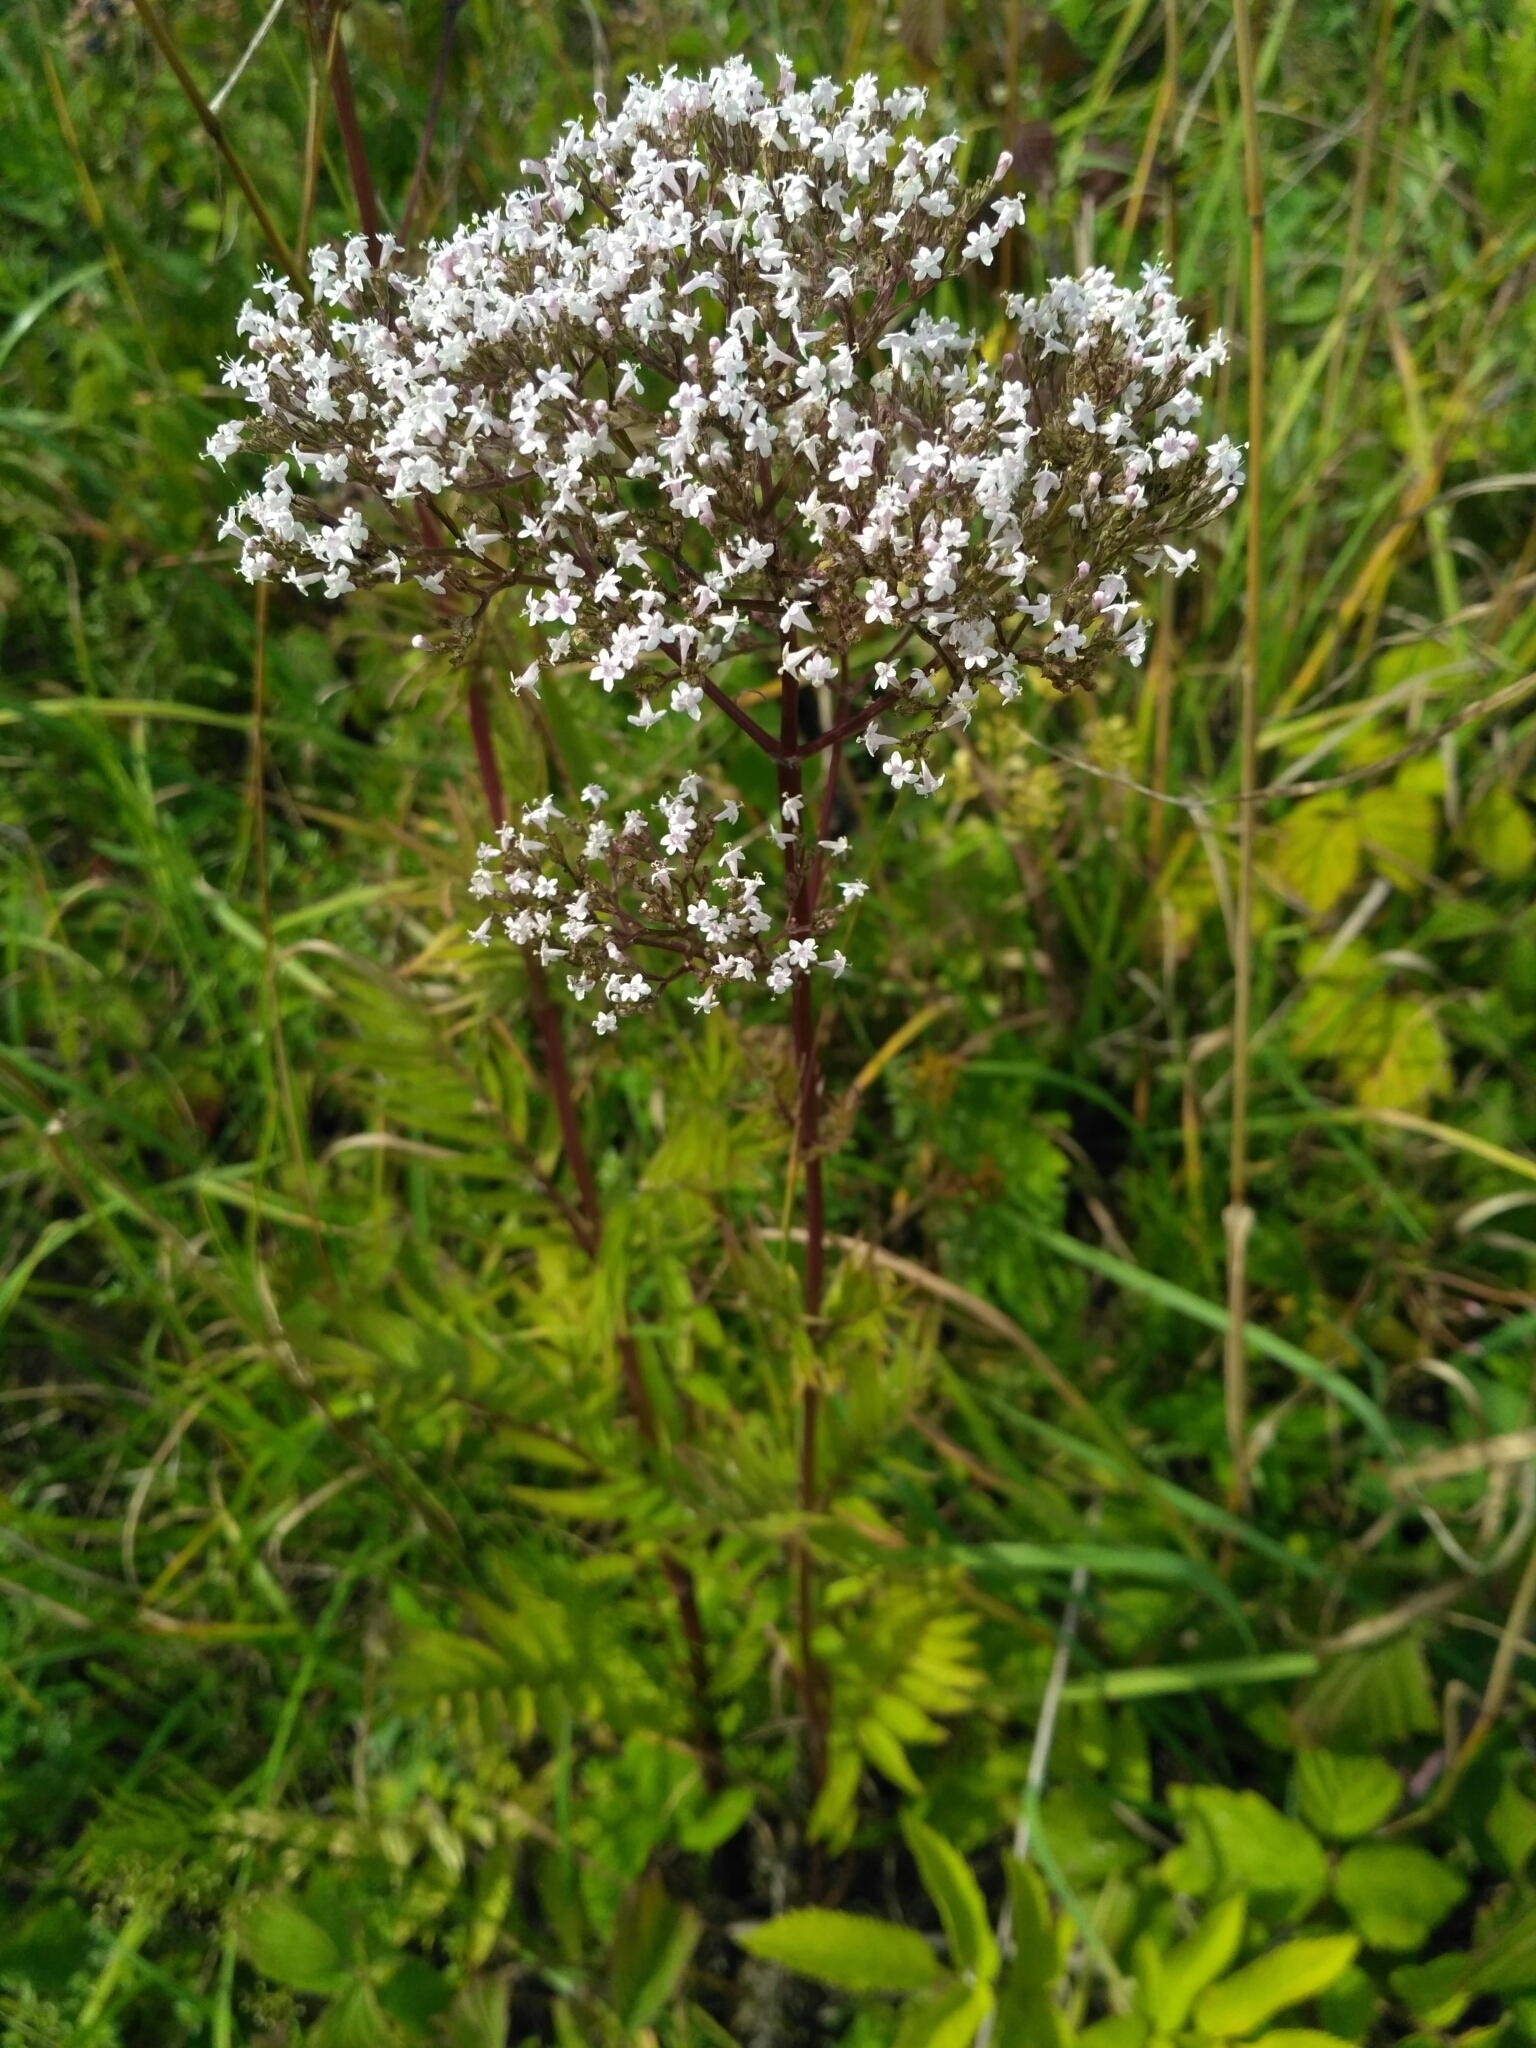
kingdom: Plantae
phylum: Tracheophyta
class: Magnoliopsida
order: Dipsacales
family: Caprifoliaceae
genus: Valeriana
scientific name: Valeriana officinalis
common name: Common valerian
